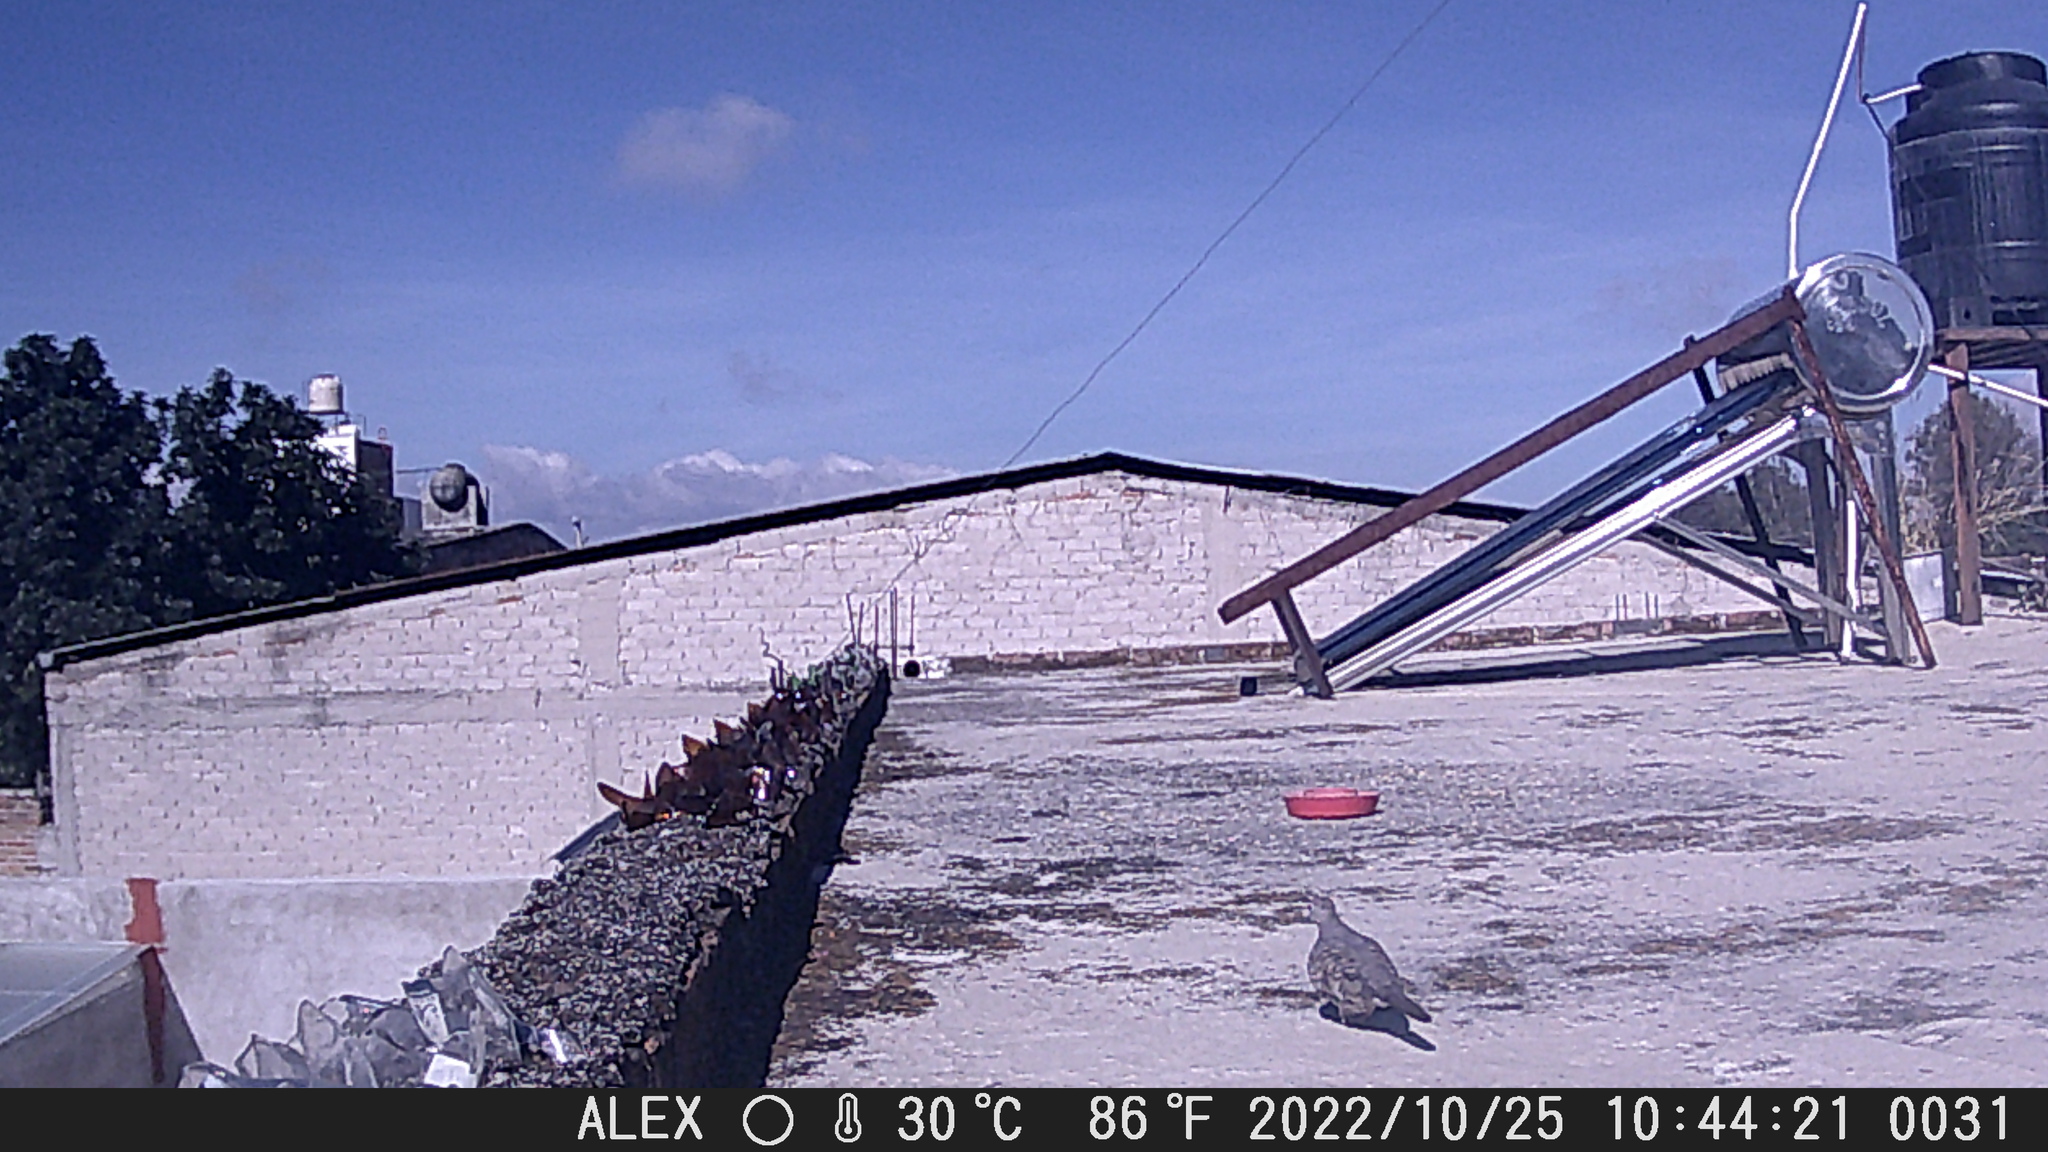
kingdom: Animalia
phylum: Chordata
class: Aves
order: Columbiformes
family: Columbidae
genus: Columbina
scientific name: Columbina inca
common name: Inca dove
